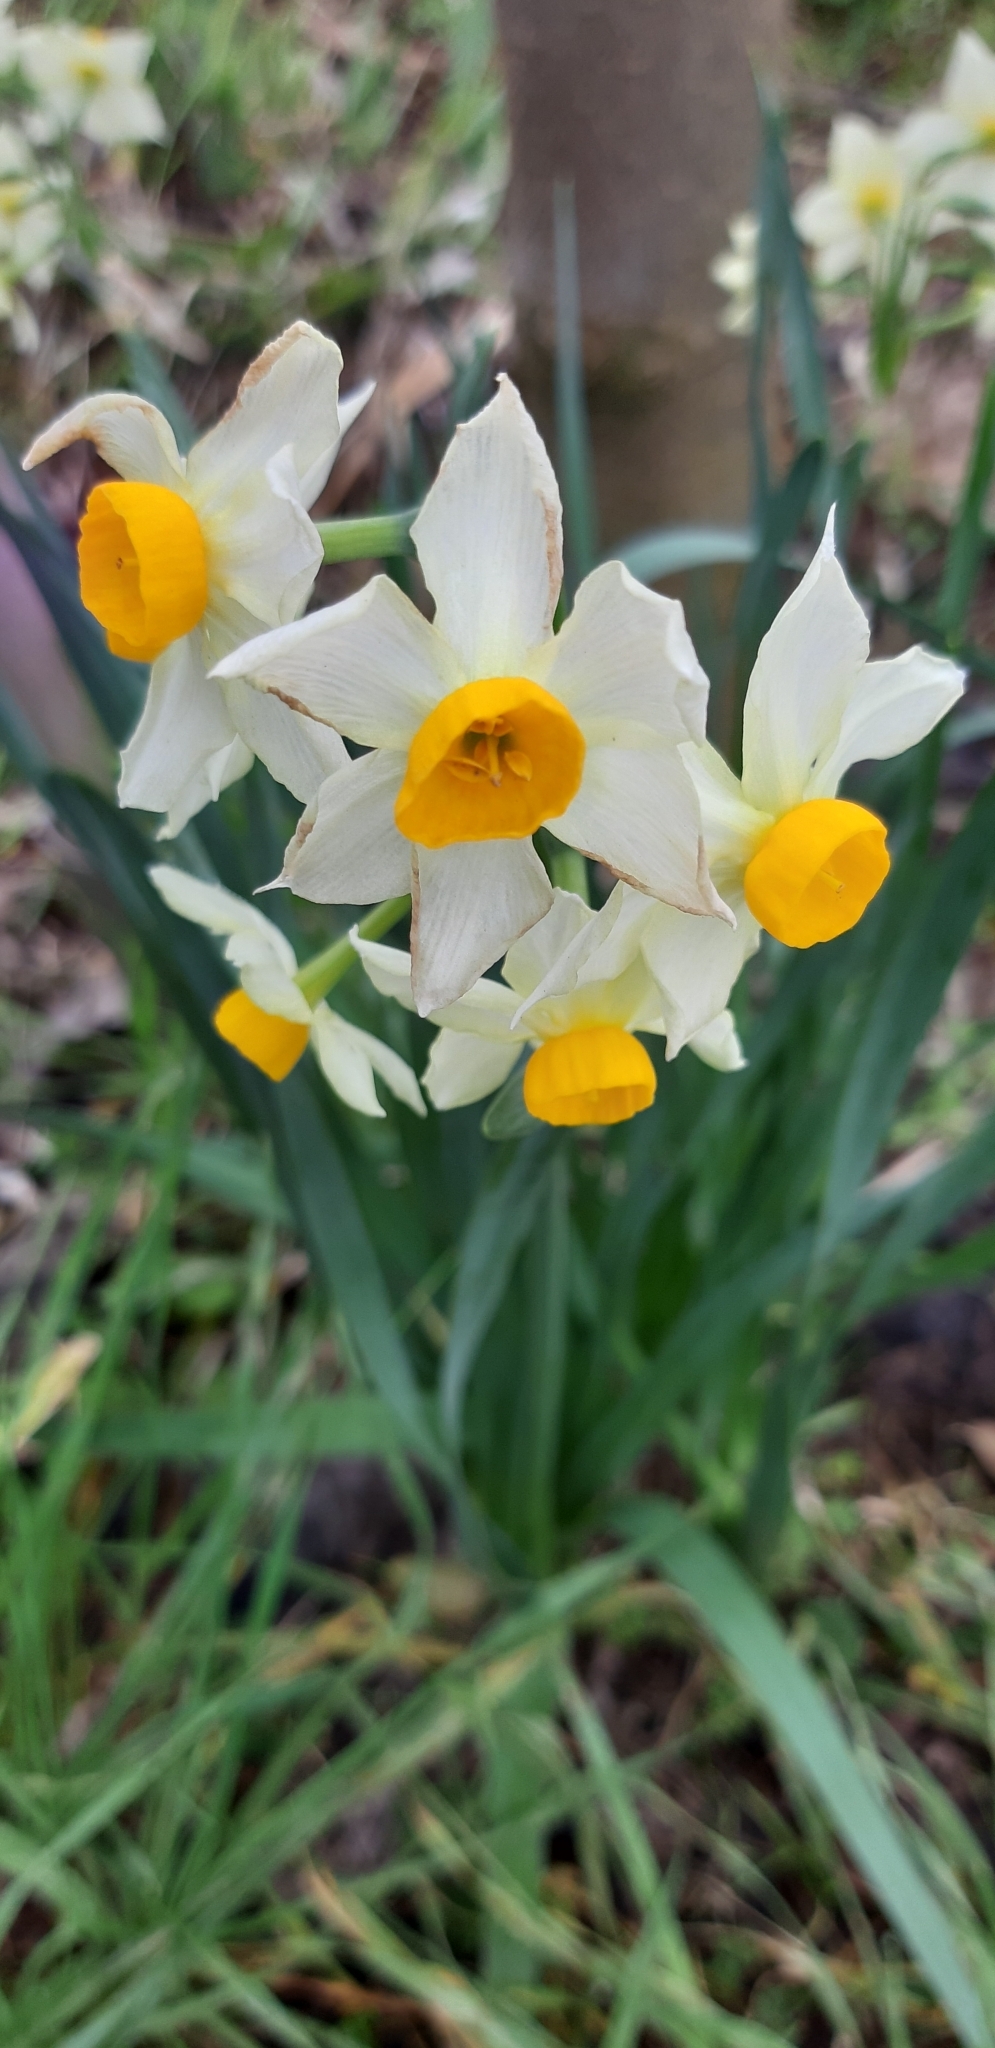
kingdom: Plantae
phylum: Tracheophyta
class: Liliopsida
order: Asparagales
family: Amaryllidaceae
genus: Narcissus
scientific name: Narcissus tazetta
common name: Bunch-flowered daffodil
